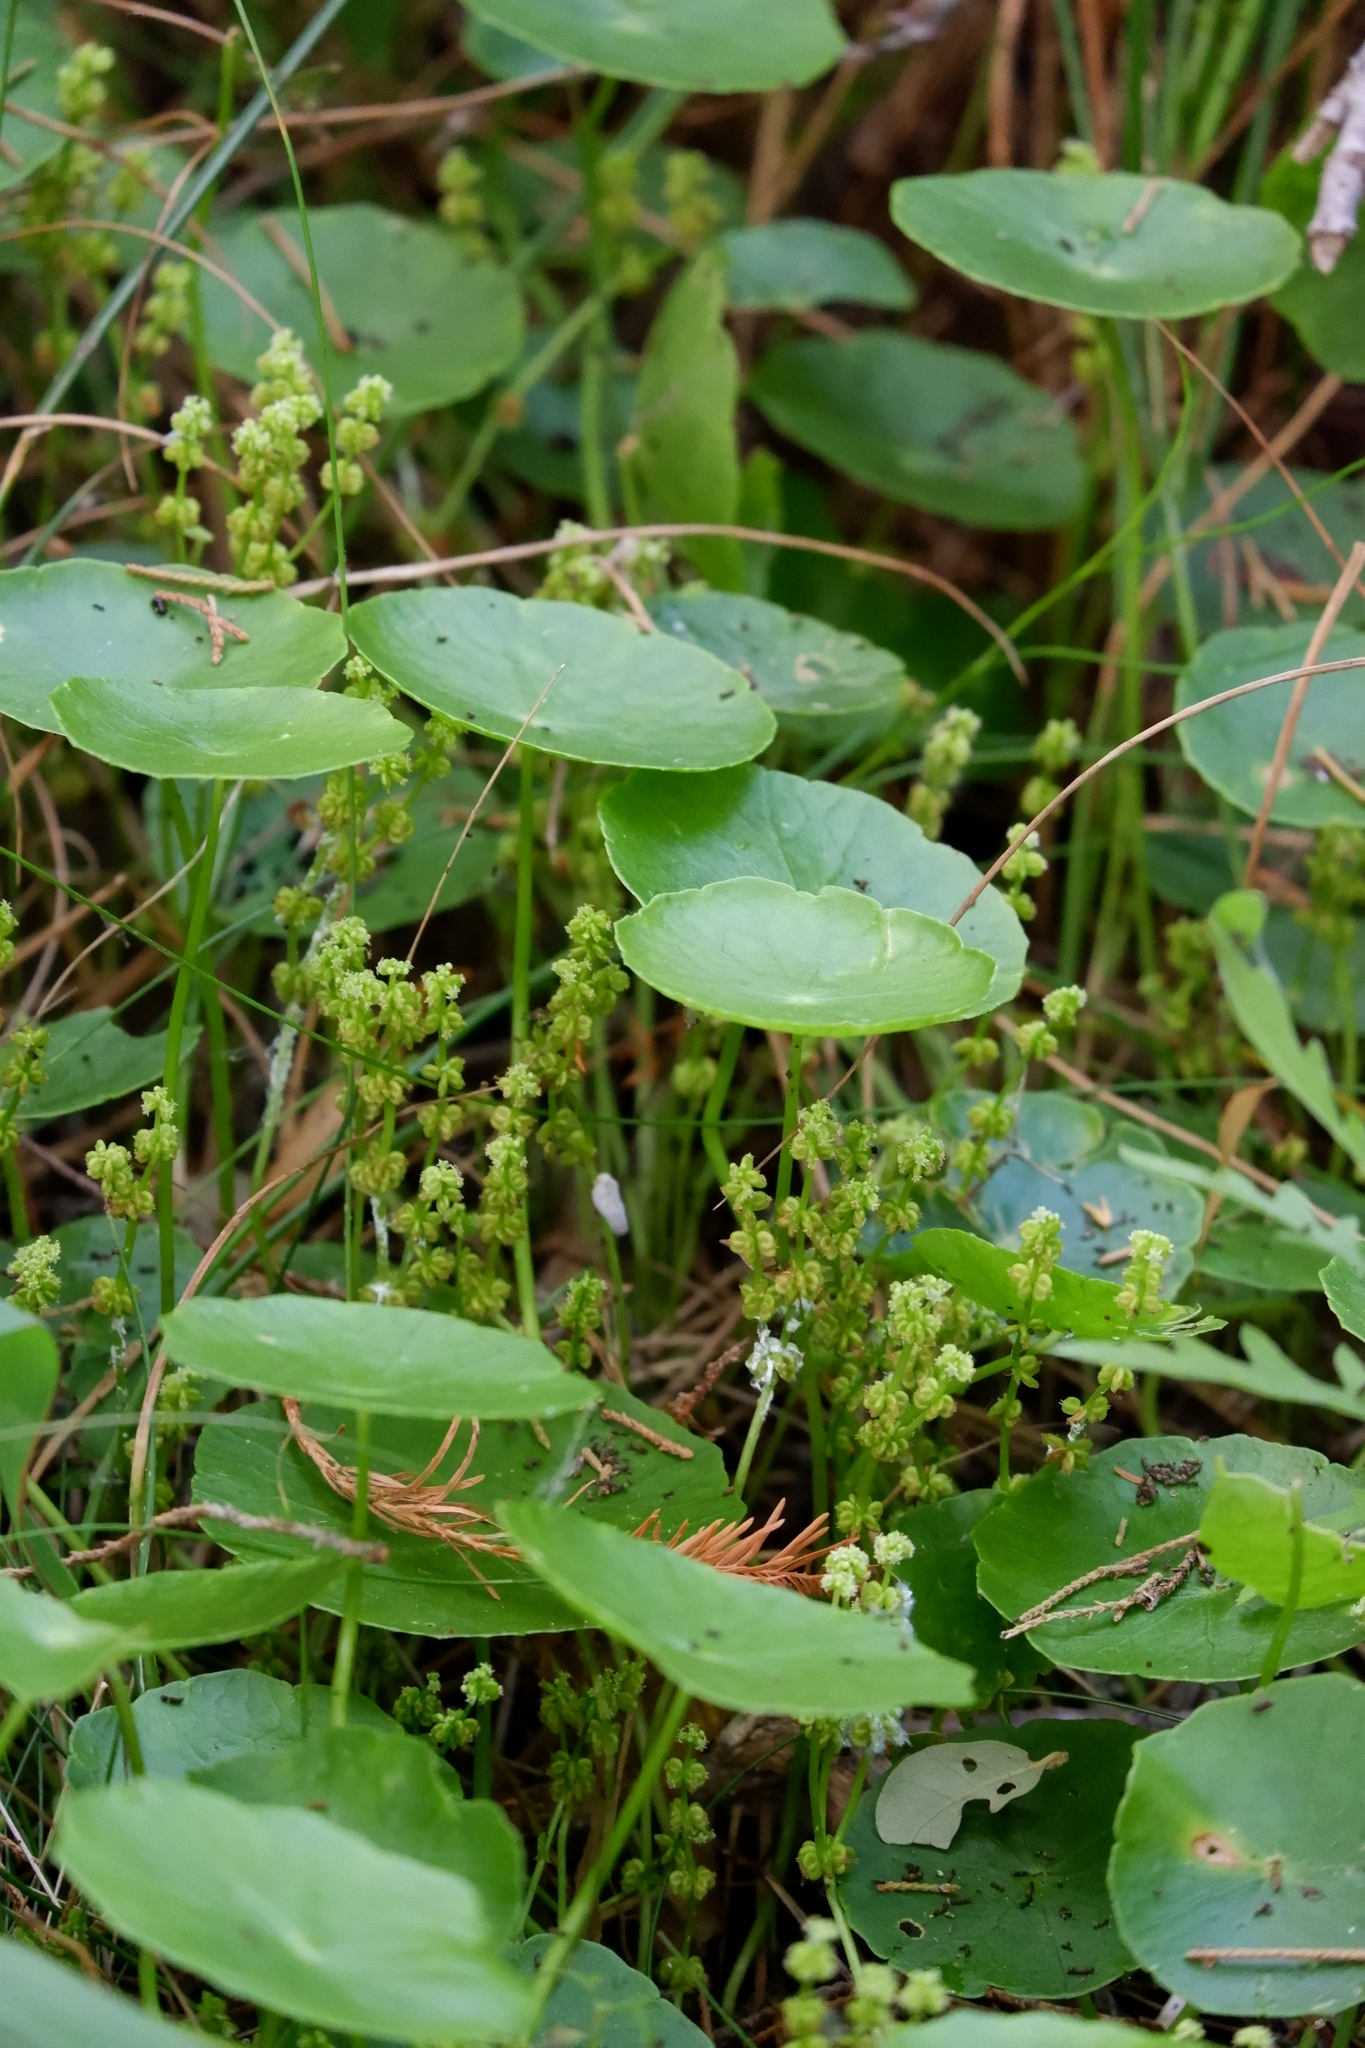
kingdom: Plantae
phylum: Tracheophyta
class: Magnoliopsida
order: Apiales
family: Araliaceae
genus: Hydrocotyle
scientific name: Hydrocotyle verticillata
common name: Whorled marshpennywort
